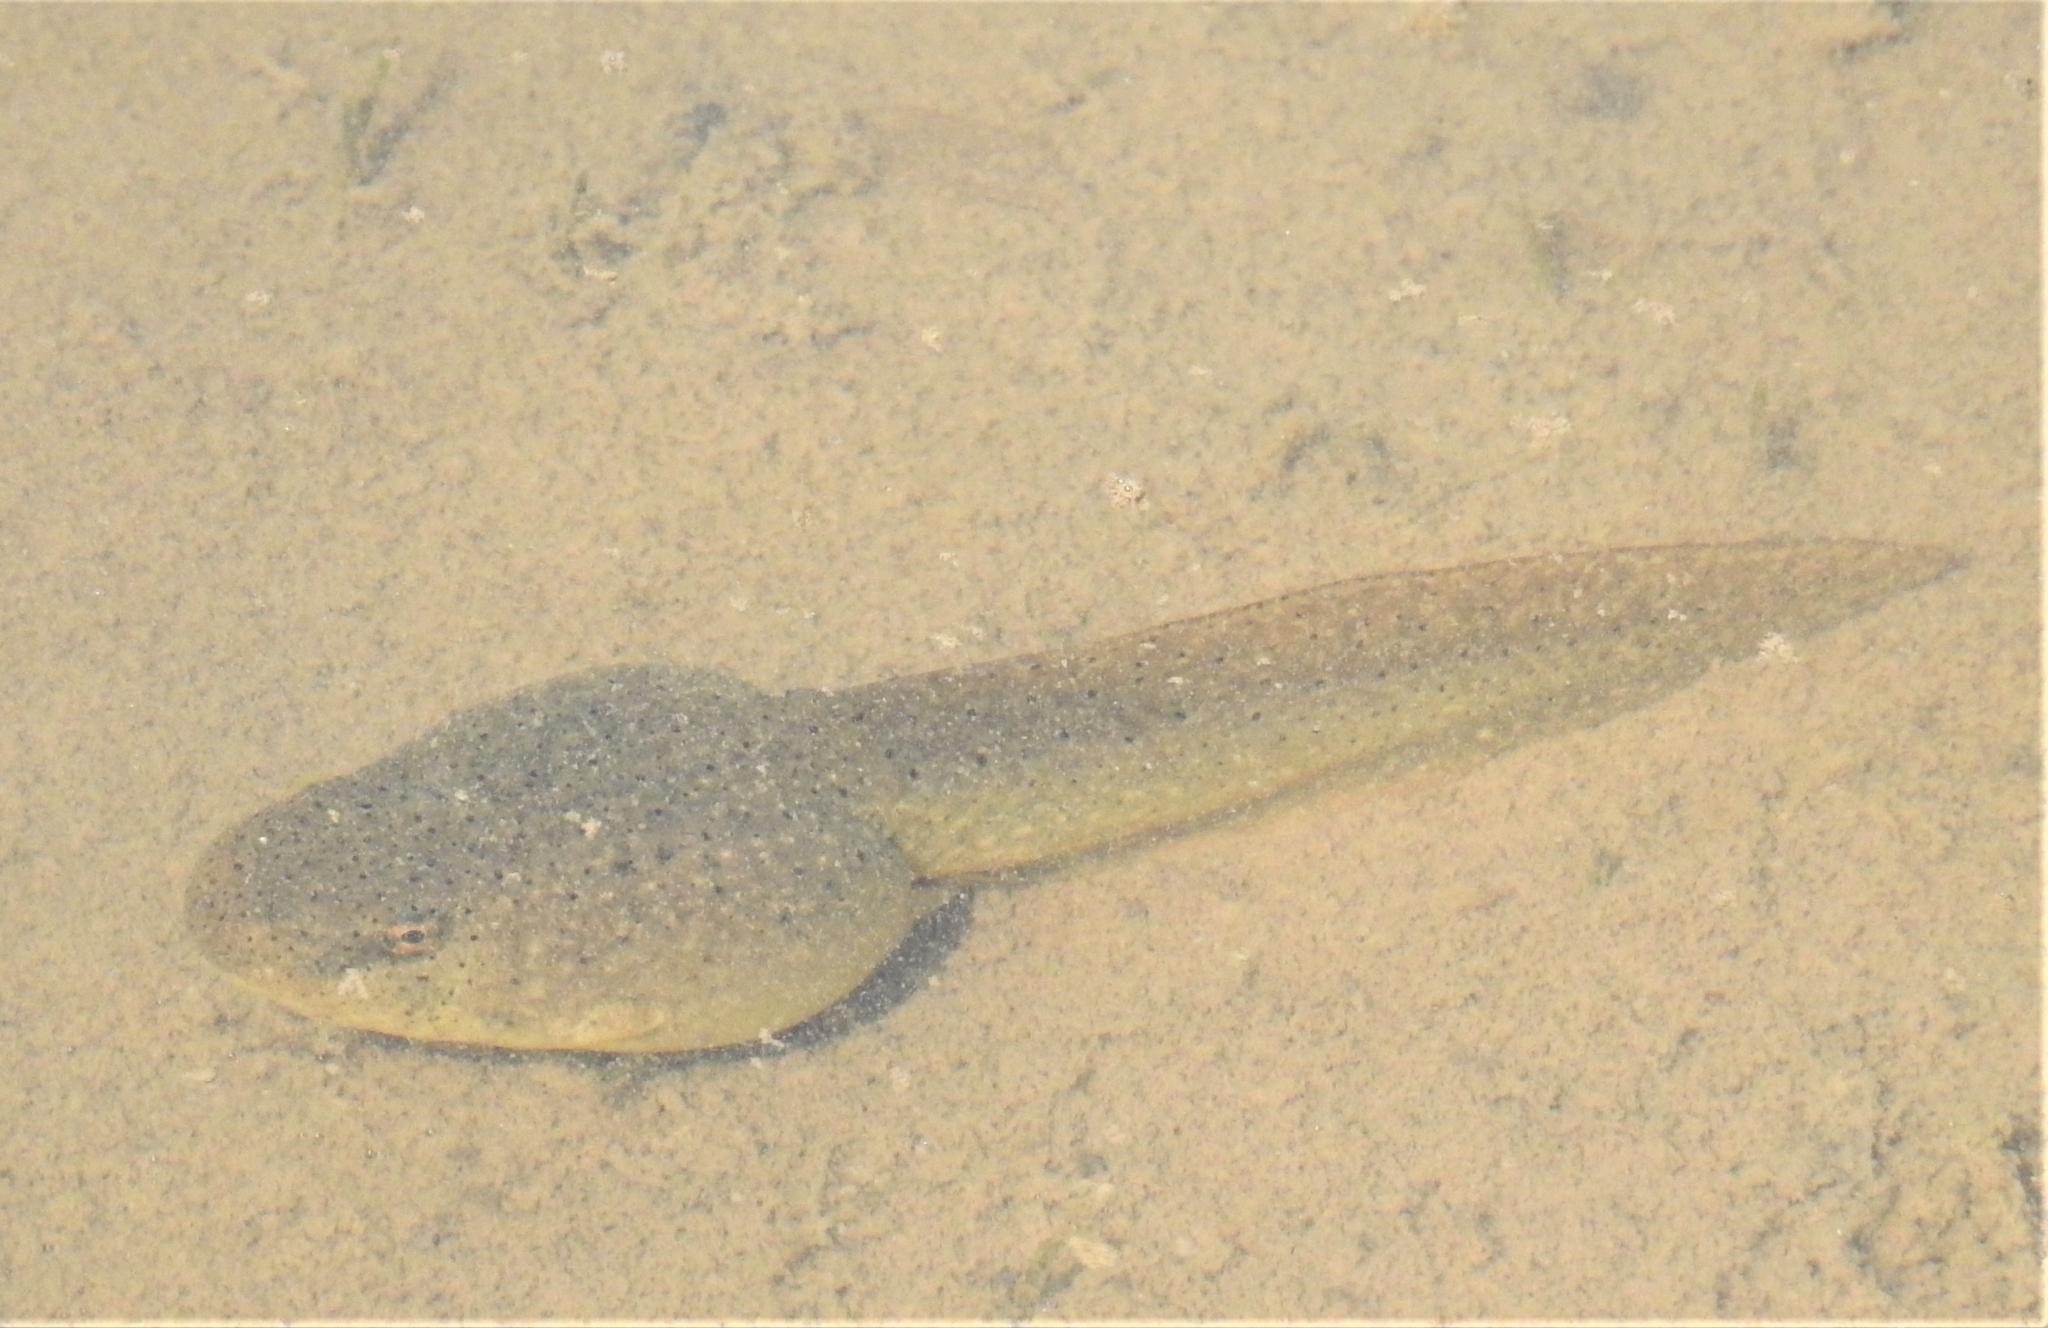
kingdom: Animalia
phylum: Chordata
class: Amphibia
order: Anura
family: Ranidae
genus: Lithobates
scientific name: Lithobates catesbeianus
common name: American bullfrog
